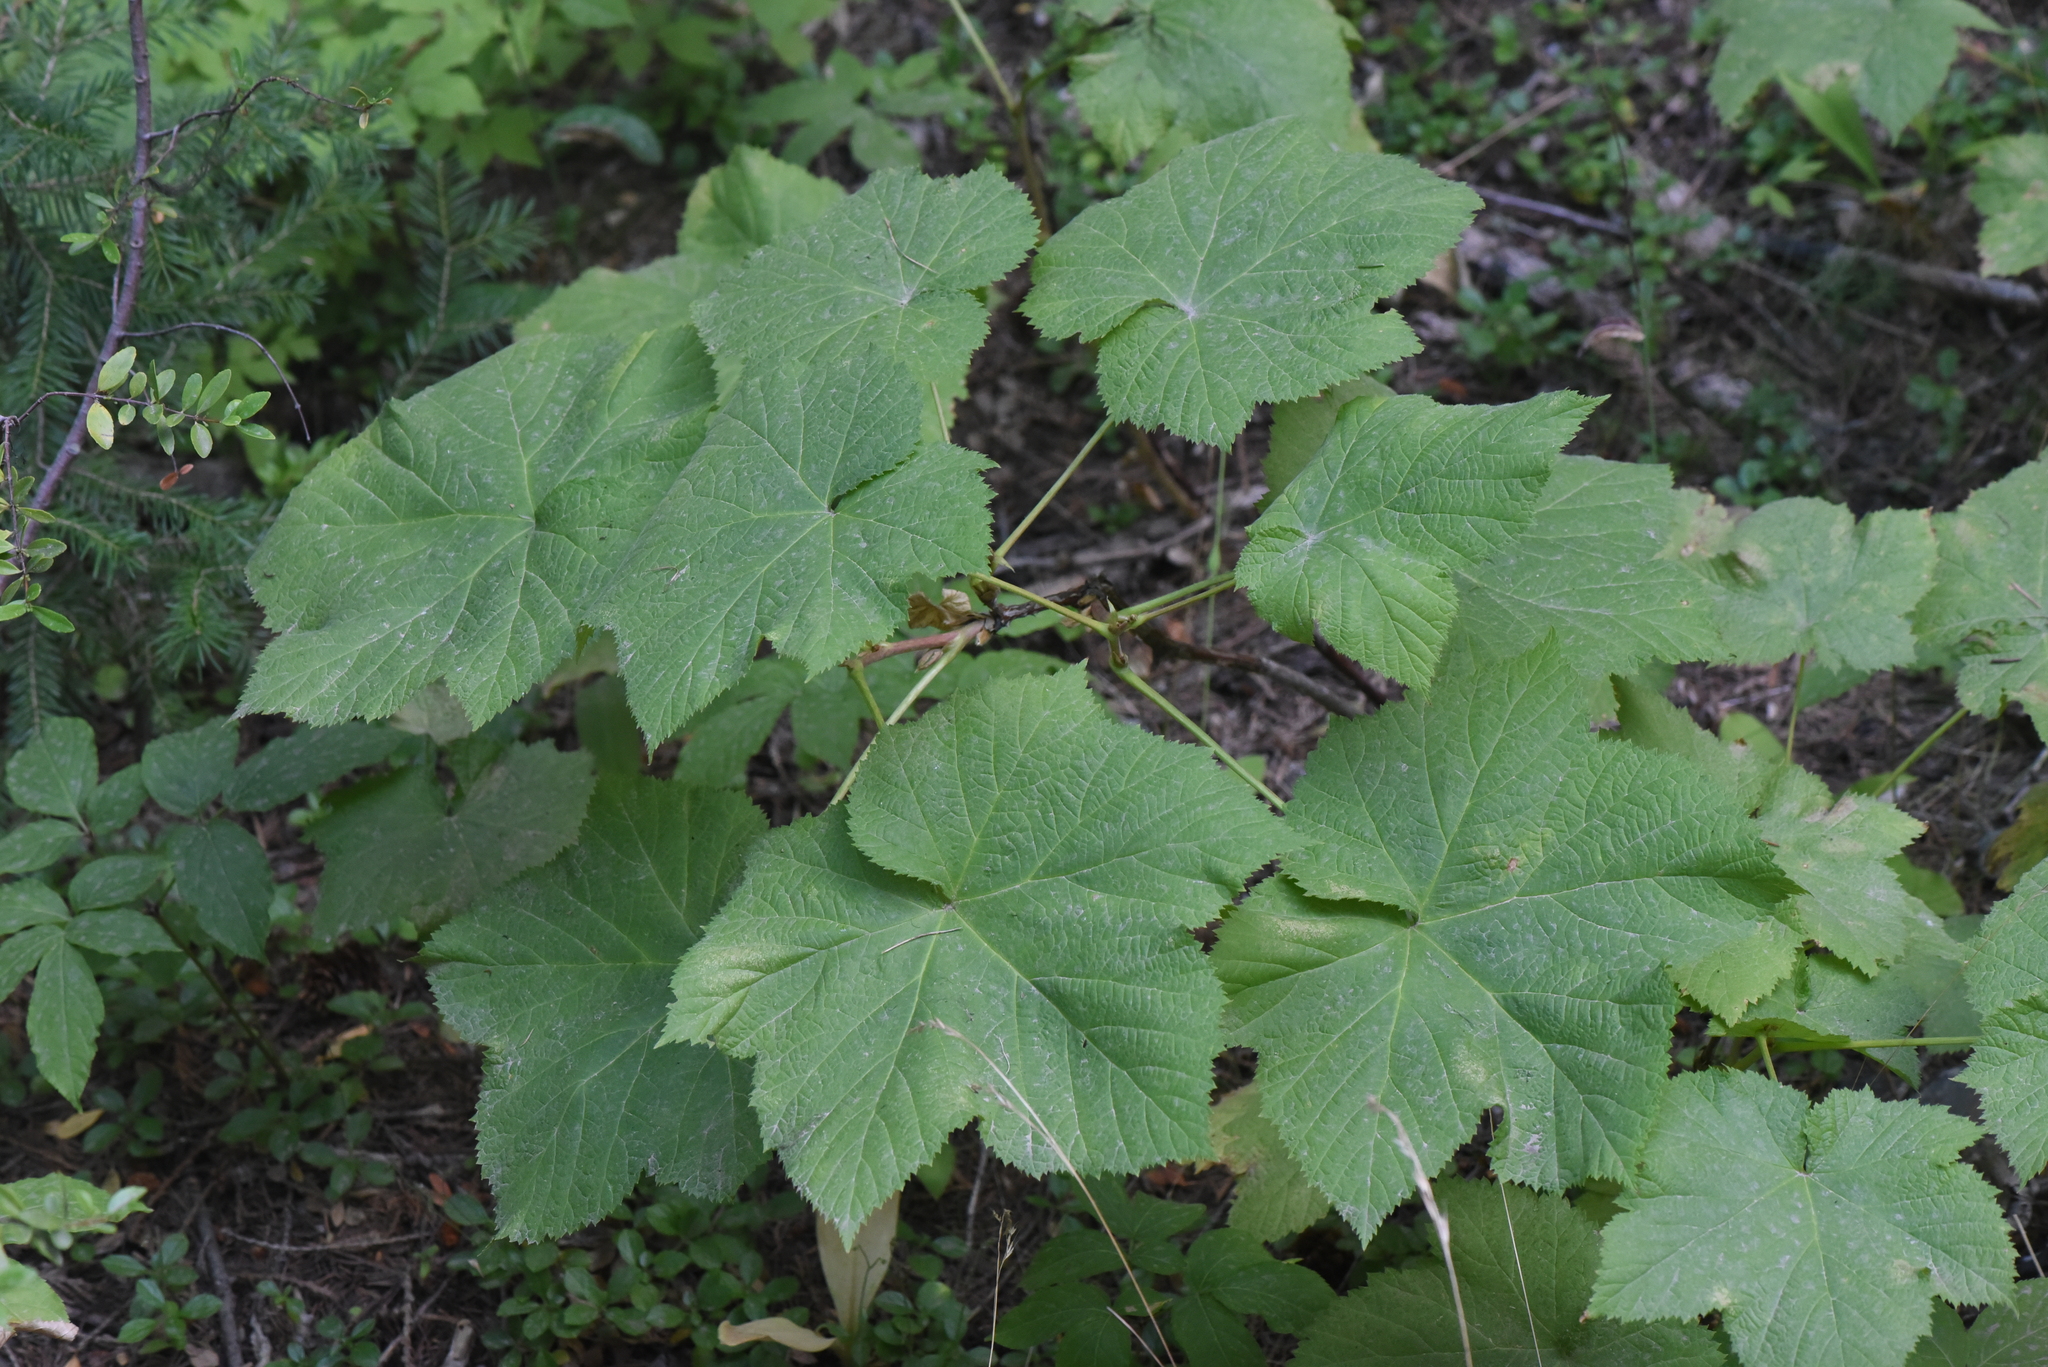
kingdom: Plantae
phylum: Tracheophyta
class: Magnoliopsida
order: Rosales
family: Rosaceae
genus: Rubus
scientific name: Rubus parviflorus
